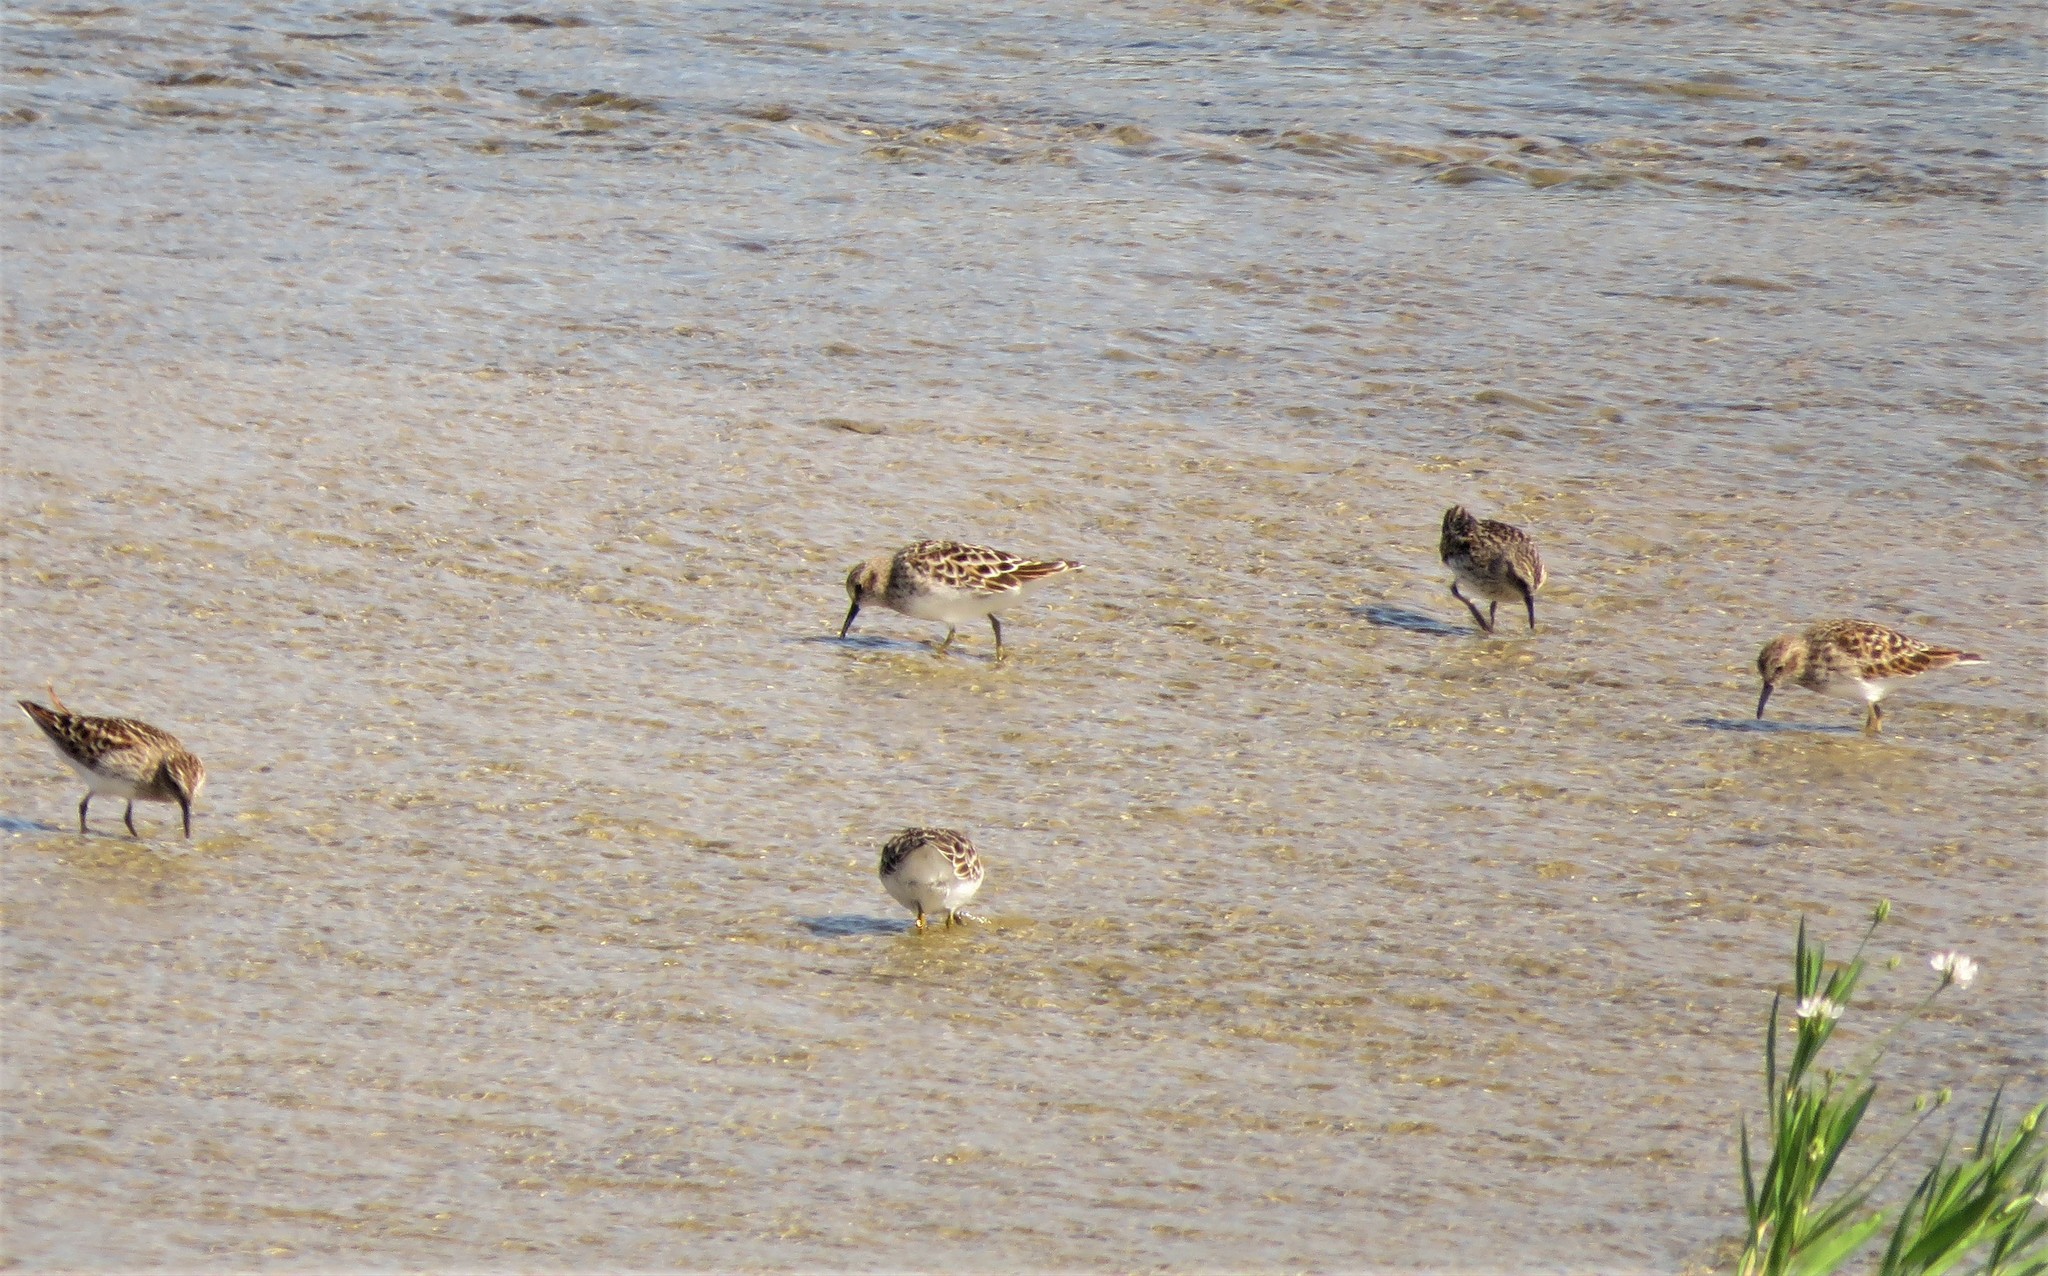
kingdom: Animalia
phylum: Chordata
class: Aves
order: Charadriiformes
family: Scolopacidae
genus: Calidris
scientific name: Calidris minutilla
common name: Least sandpiper
